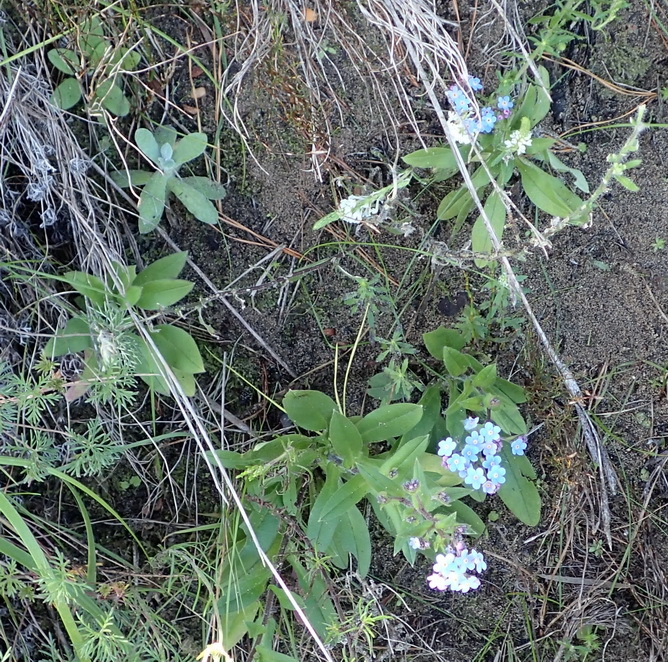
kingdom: Plantae
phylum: Tracheophyta
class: Magnoliopsida
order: Boraginales
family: Boraginaceae
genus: Myosotis
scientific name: Myosotis sylvatica
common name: Wood forget-me-not
